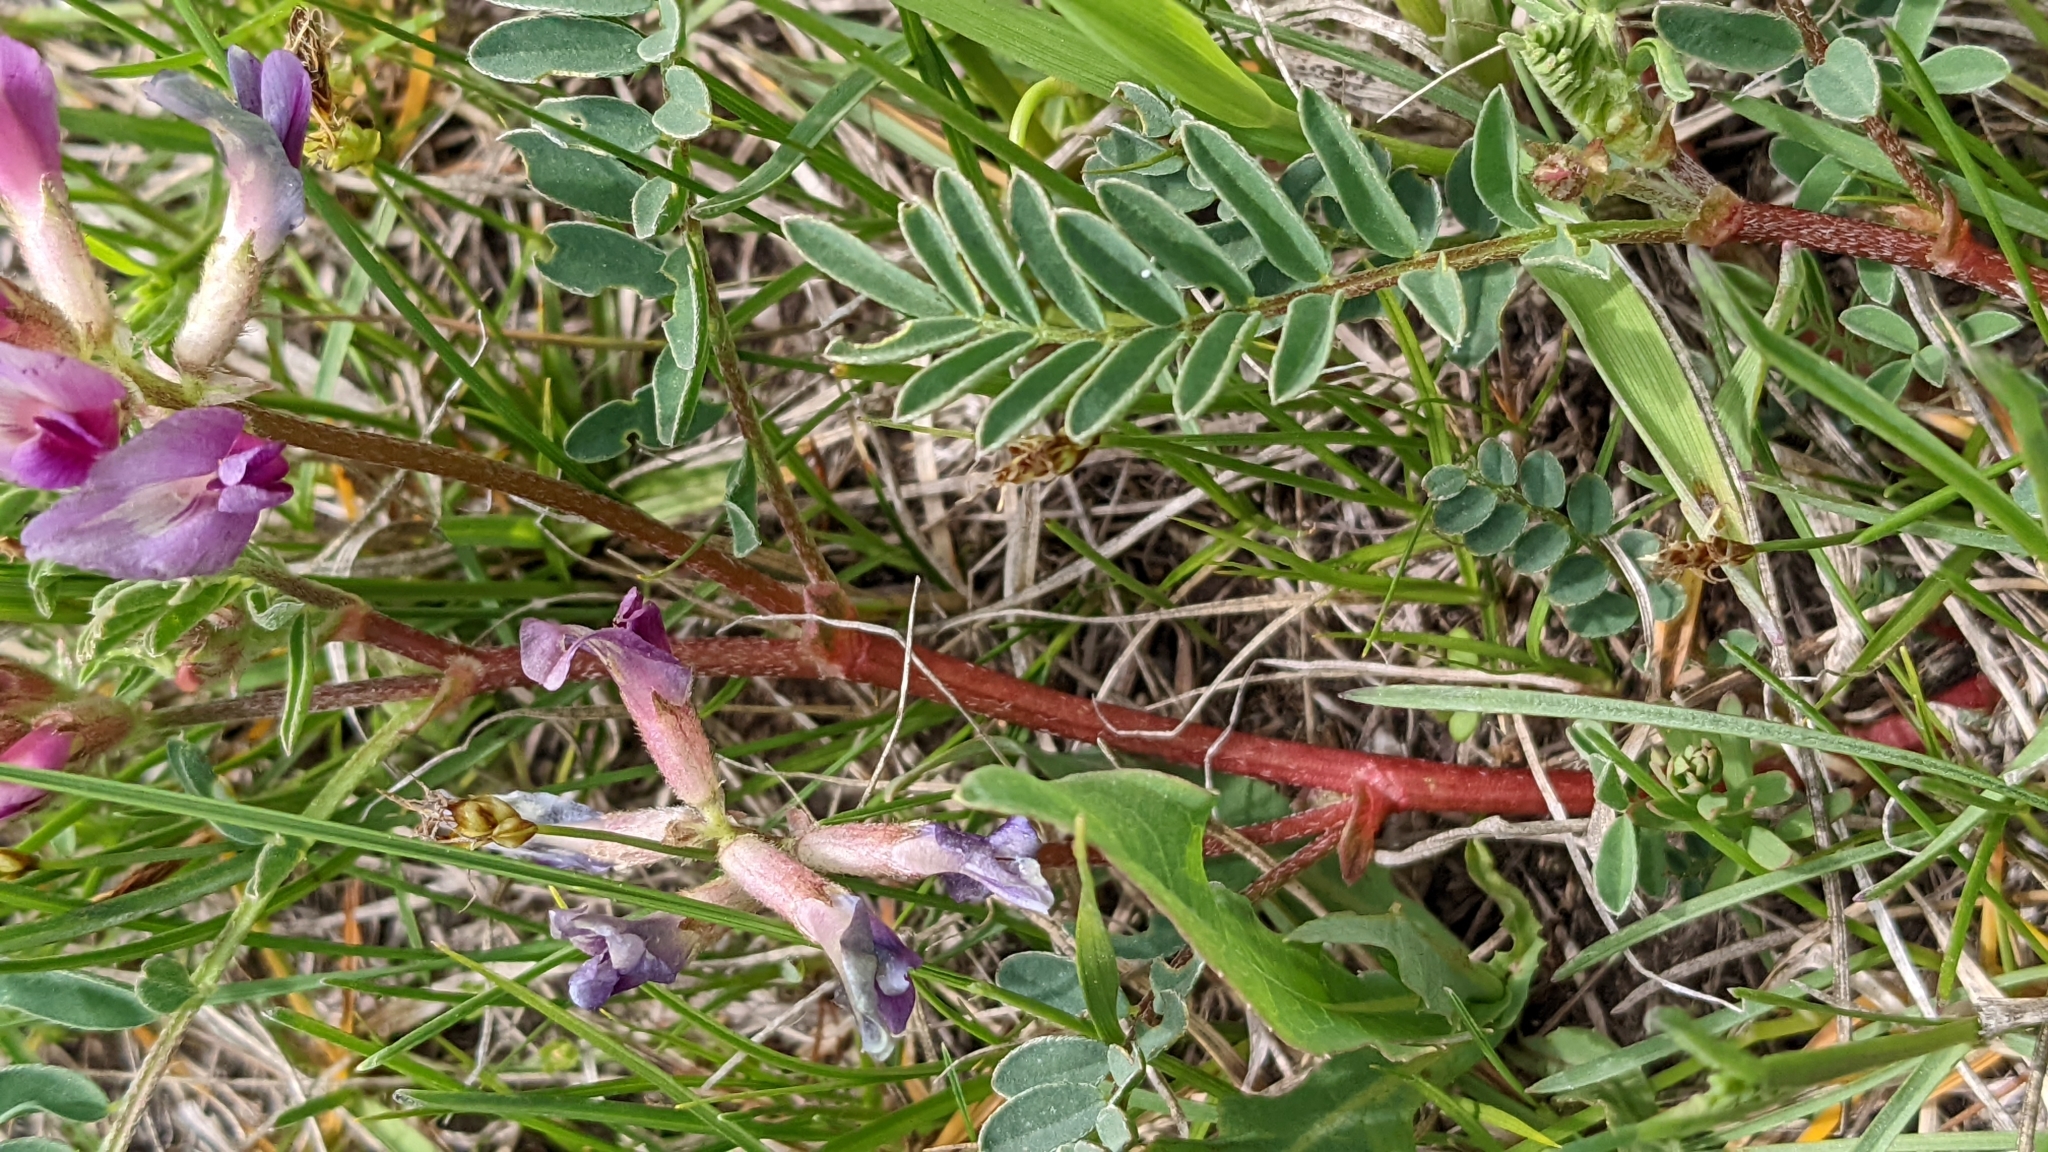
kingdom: Plantae
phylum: Tracheophyta
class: Magnoliopsida
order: Fabales
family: Fabaceae
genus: Astragalus
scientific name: Astragalus crassicarpus
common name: Ground-plum milk-vetch
